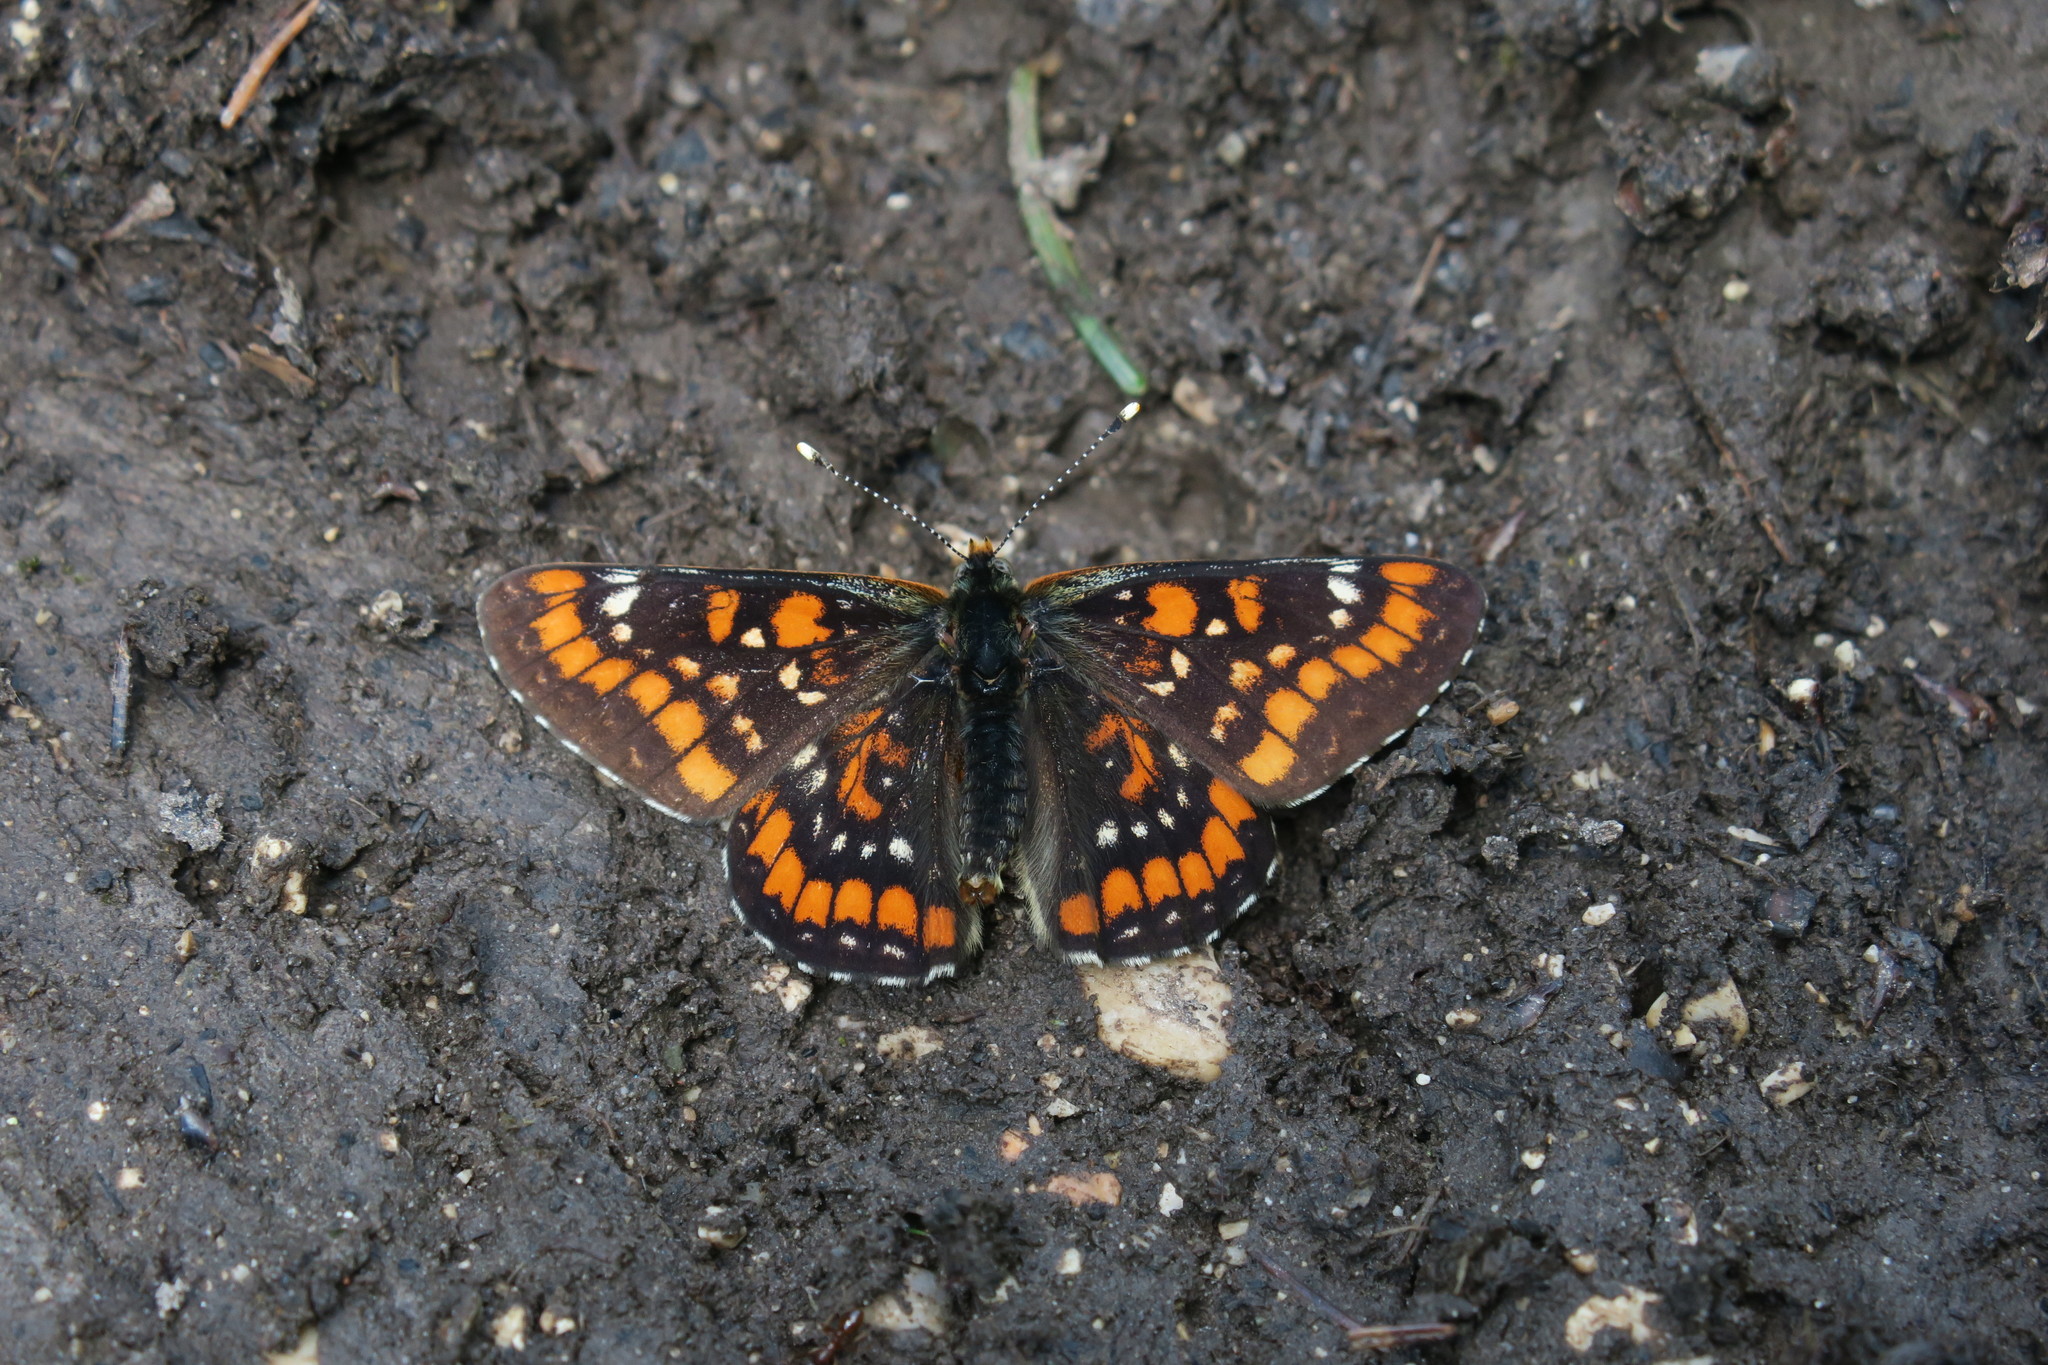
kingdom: Animalia
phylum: Arthropoda
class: Insecta
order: Lepidoptera
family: Nymphalidae
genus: Euphydryas
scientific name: Euphydryas maturna
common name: Scarce fritillary
